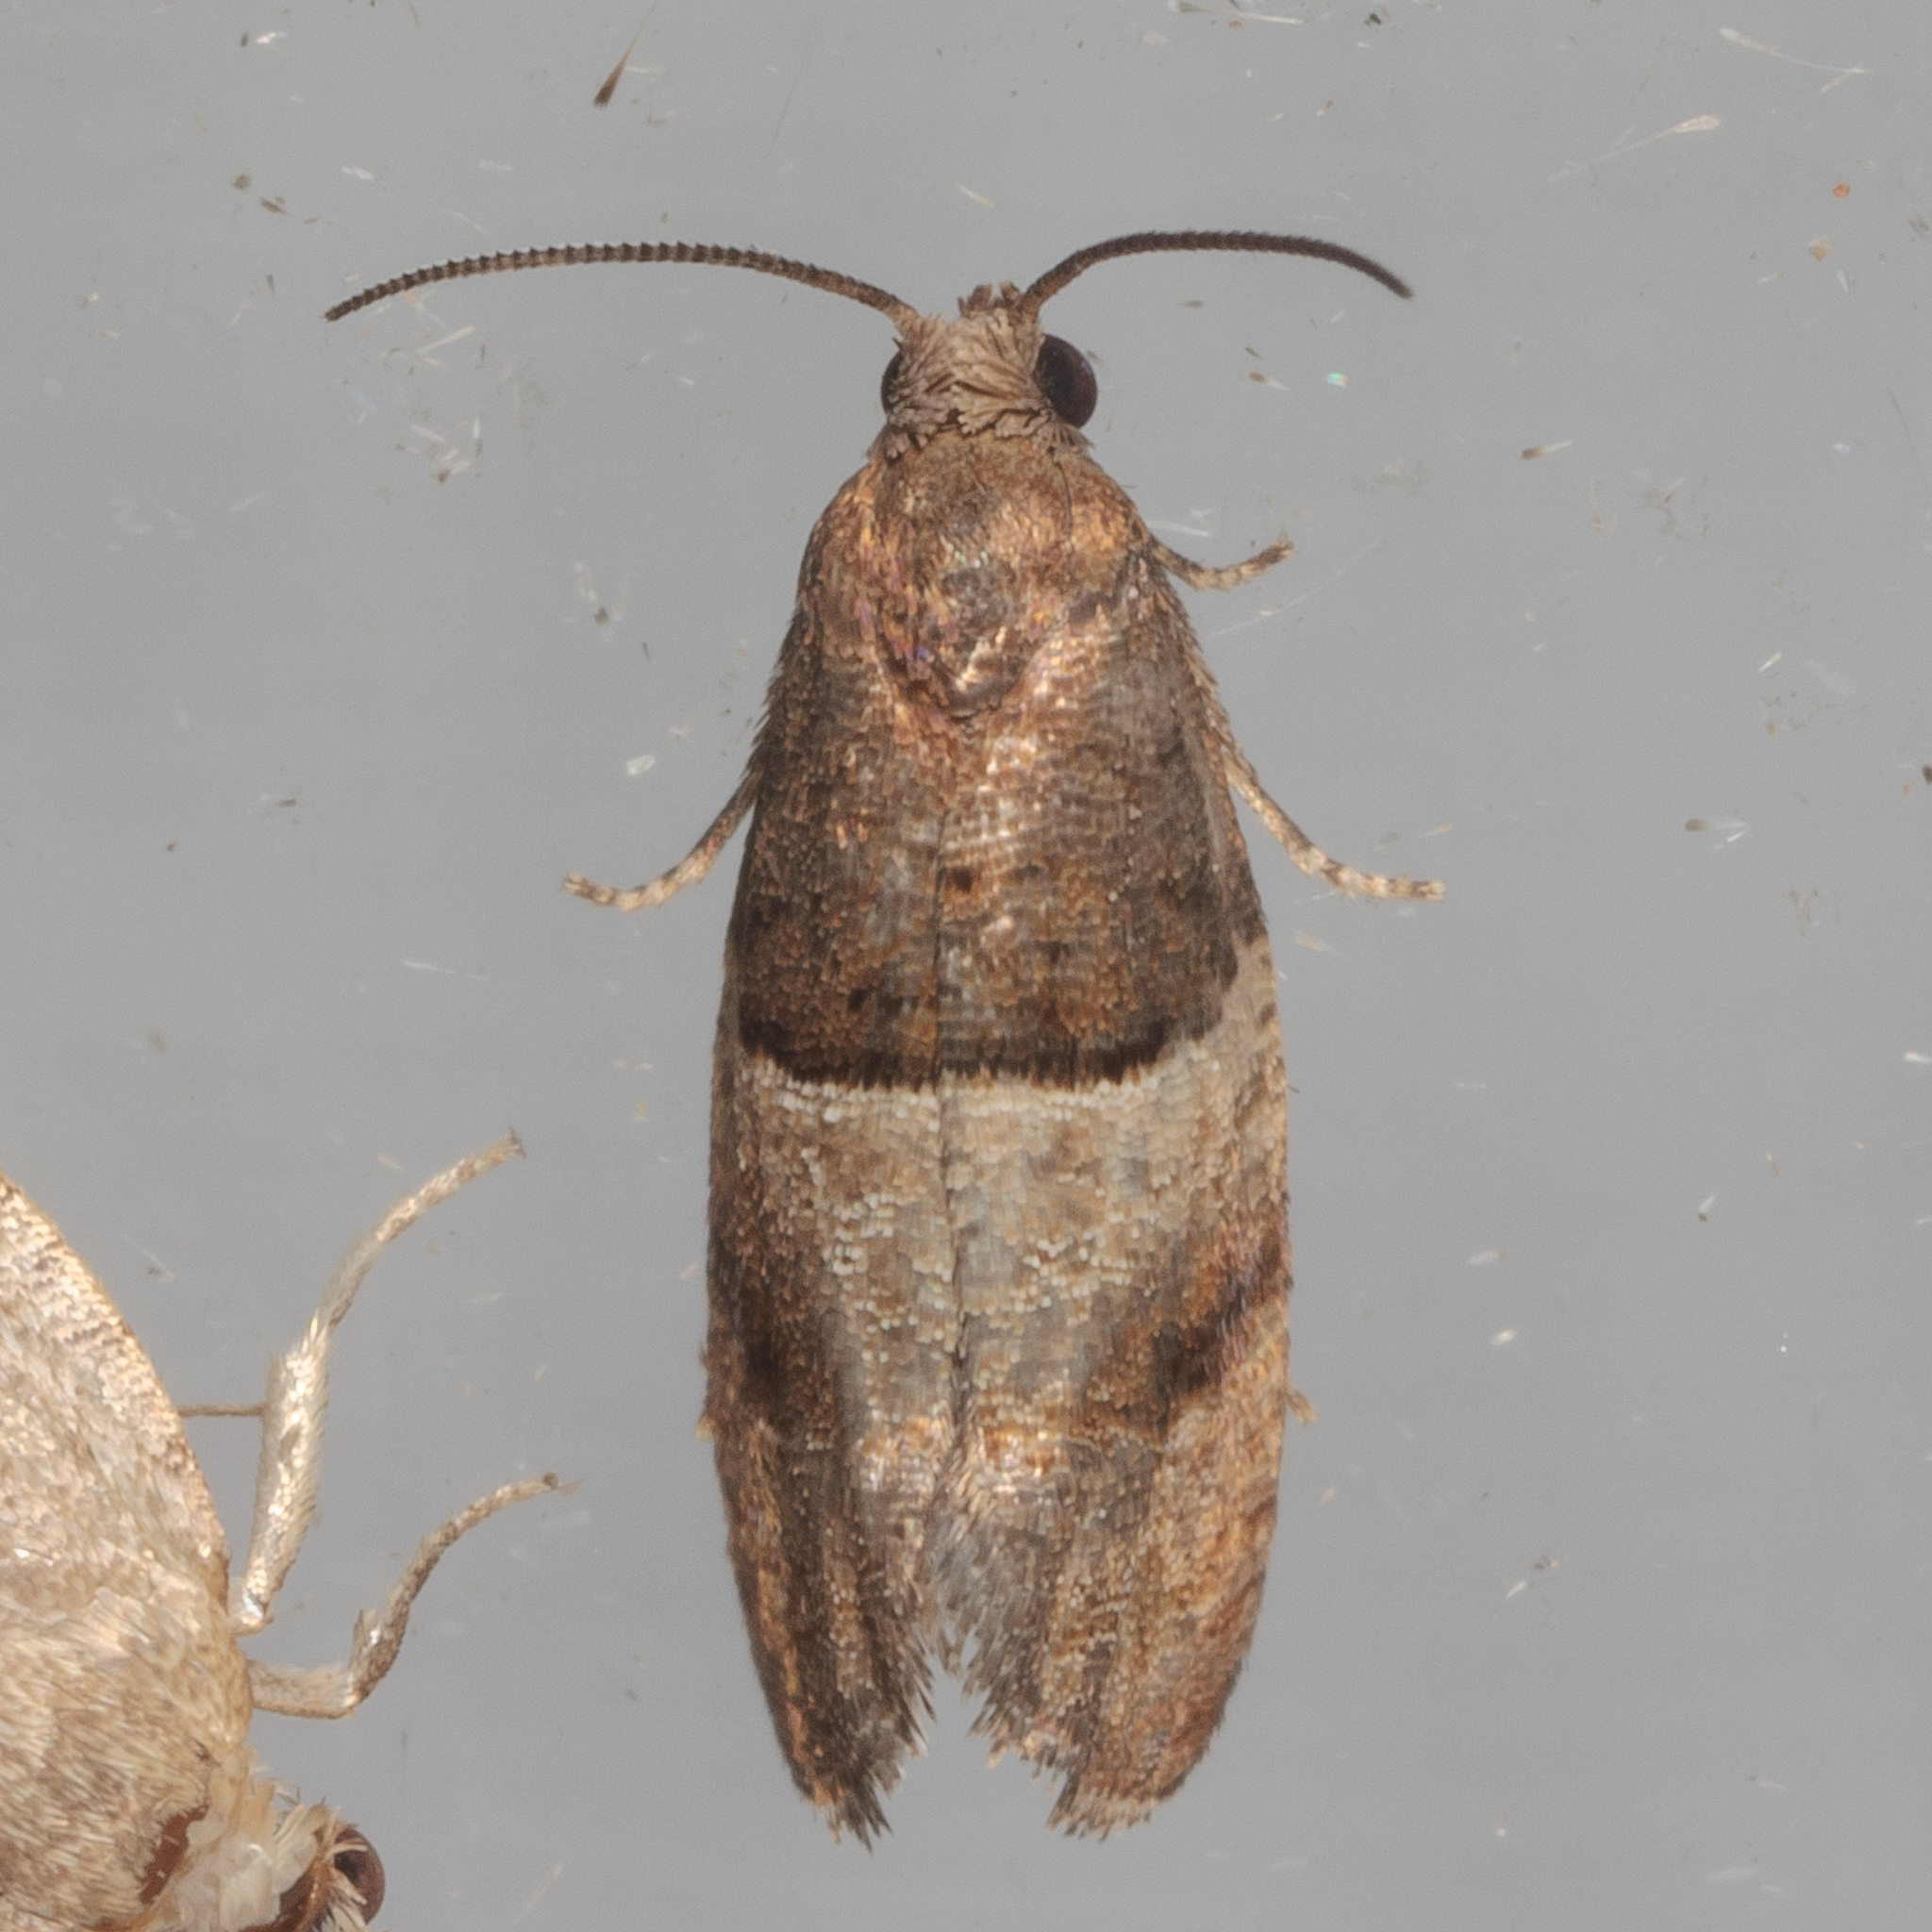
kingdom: Animalia
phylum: Arthropoda
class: Insecta
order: Lepidoptera
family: Tortricidae
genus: Larisa
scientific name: Larisa subsolana
